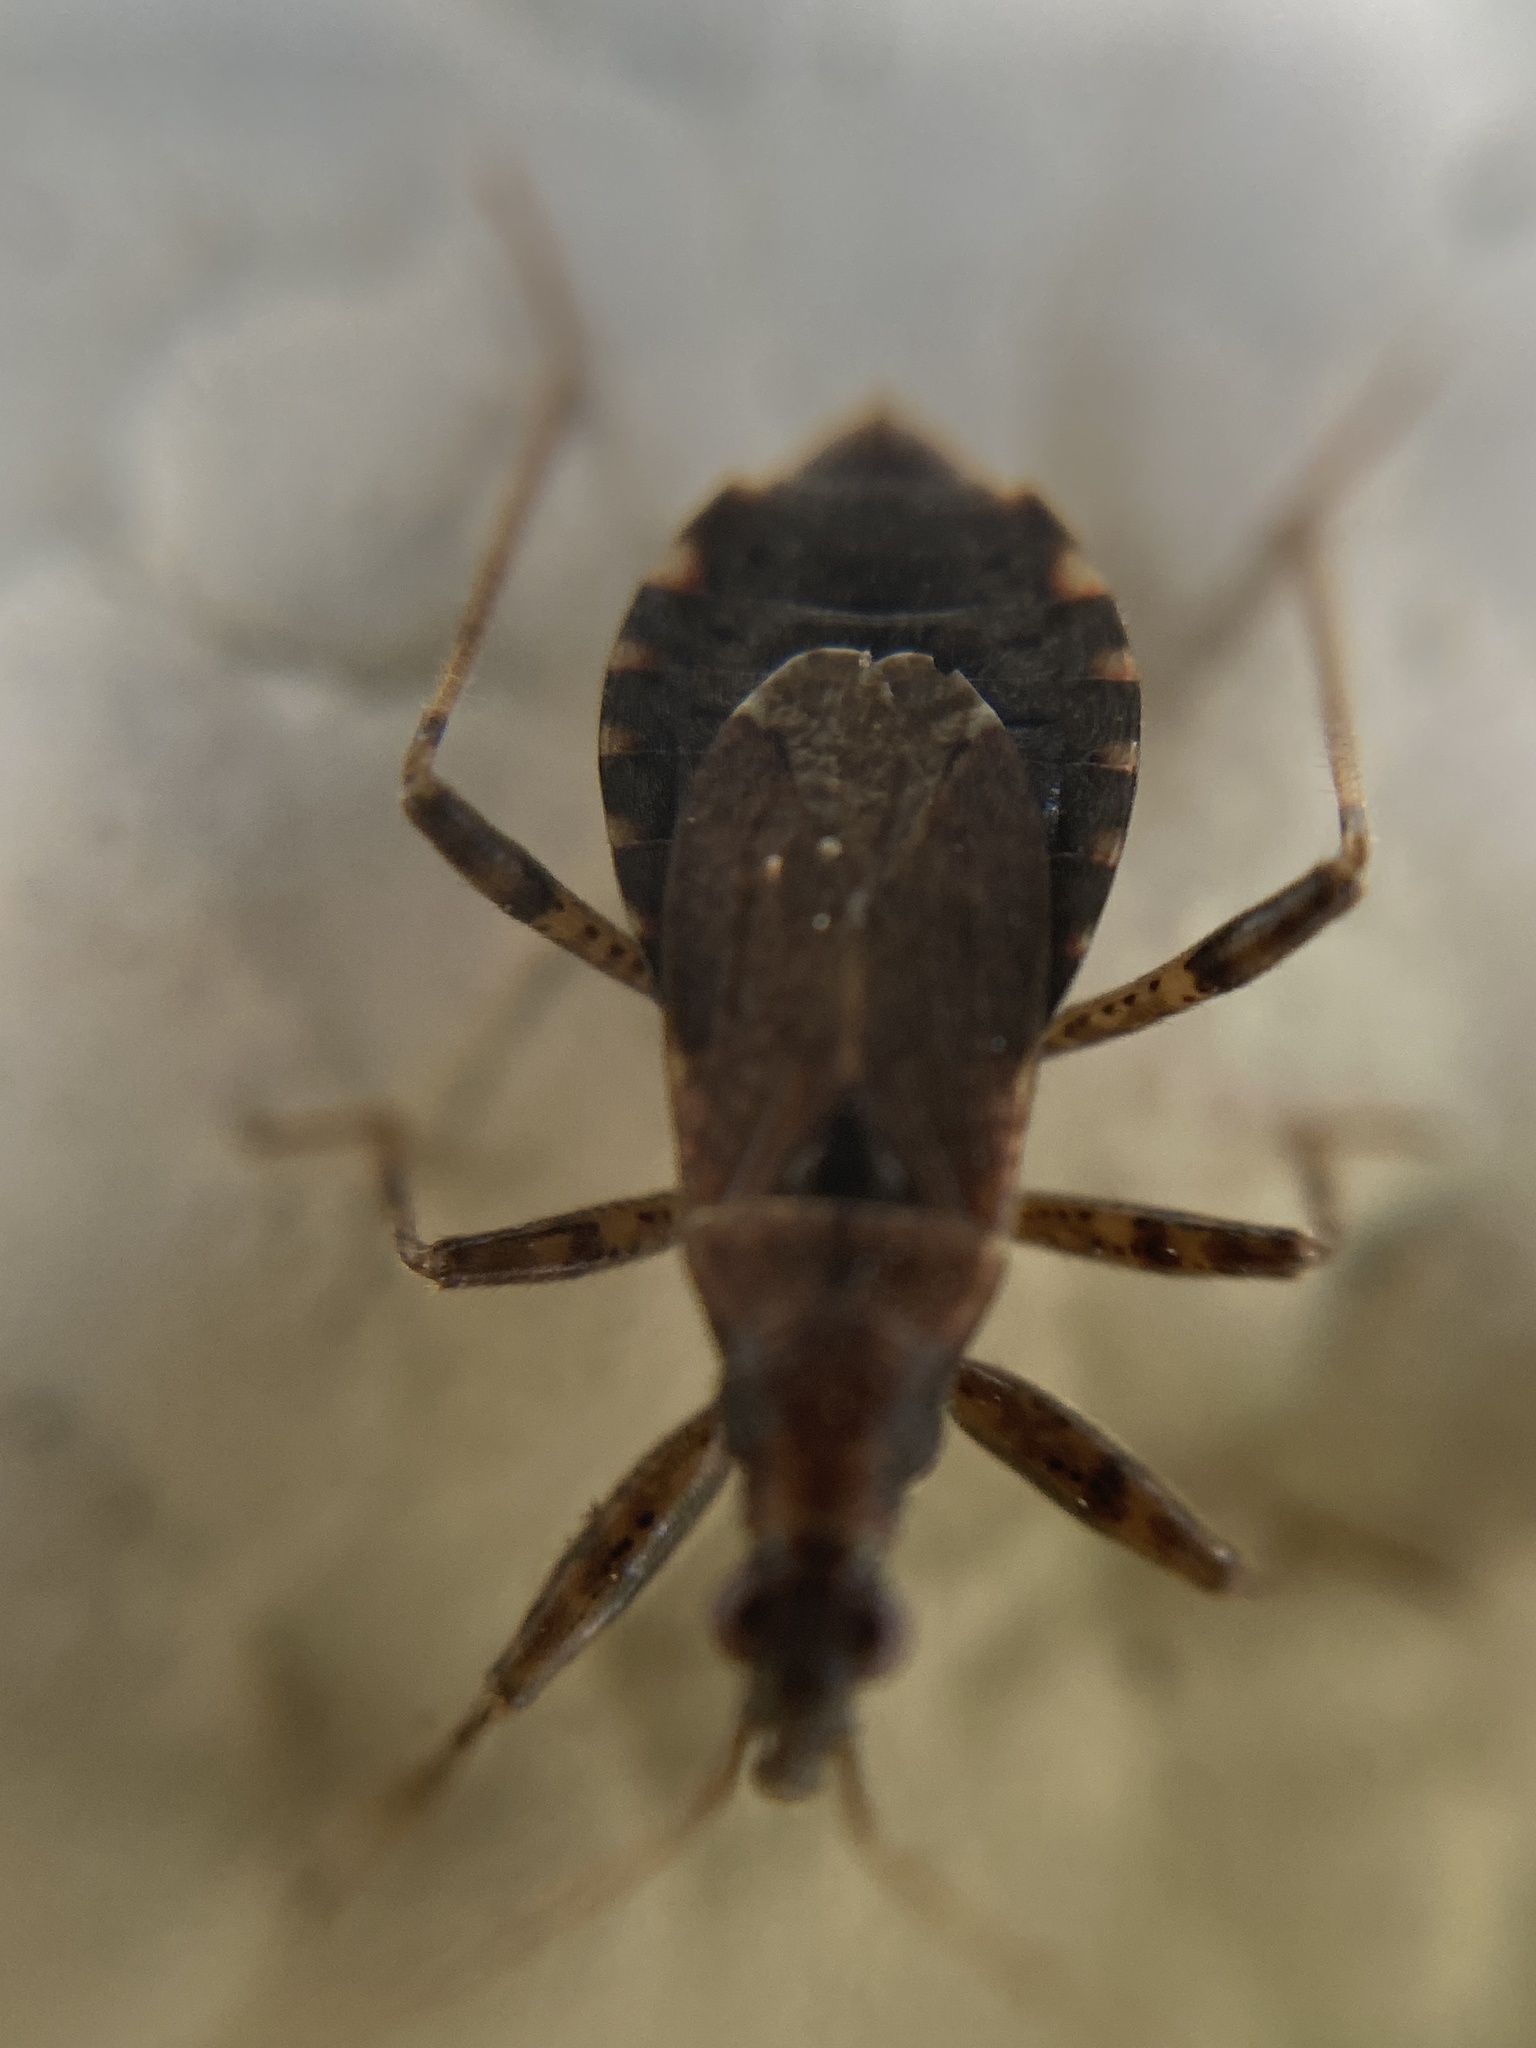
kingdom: Animalia
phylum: Arthropoda
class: Insecta
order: Hemiptera
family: Nabidae
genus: Himacerus
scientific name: Himacerus mirmicoides
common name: Ant damsel bug
